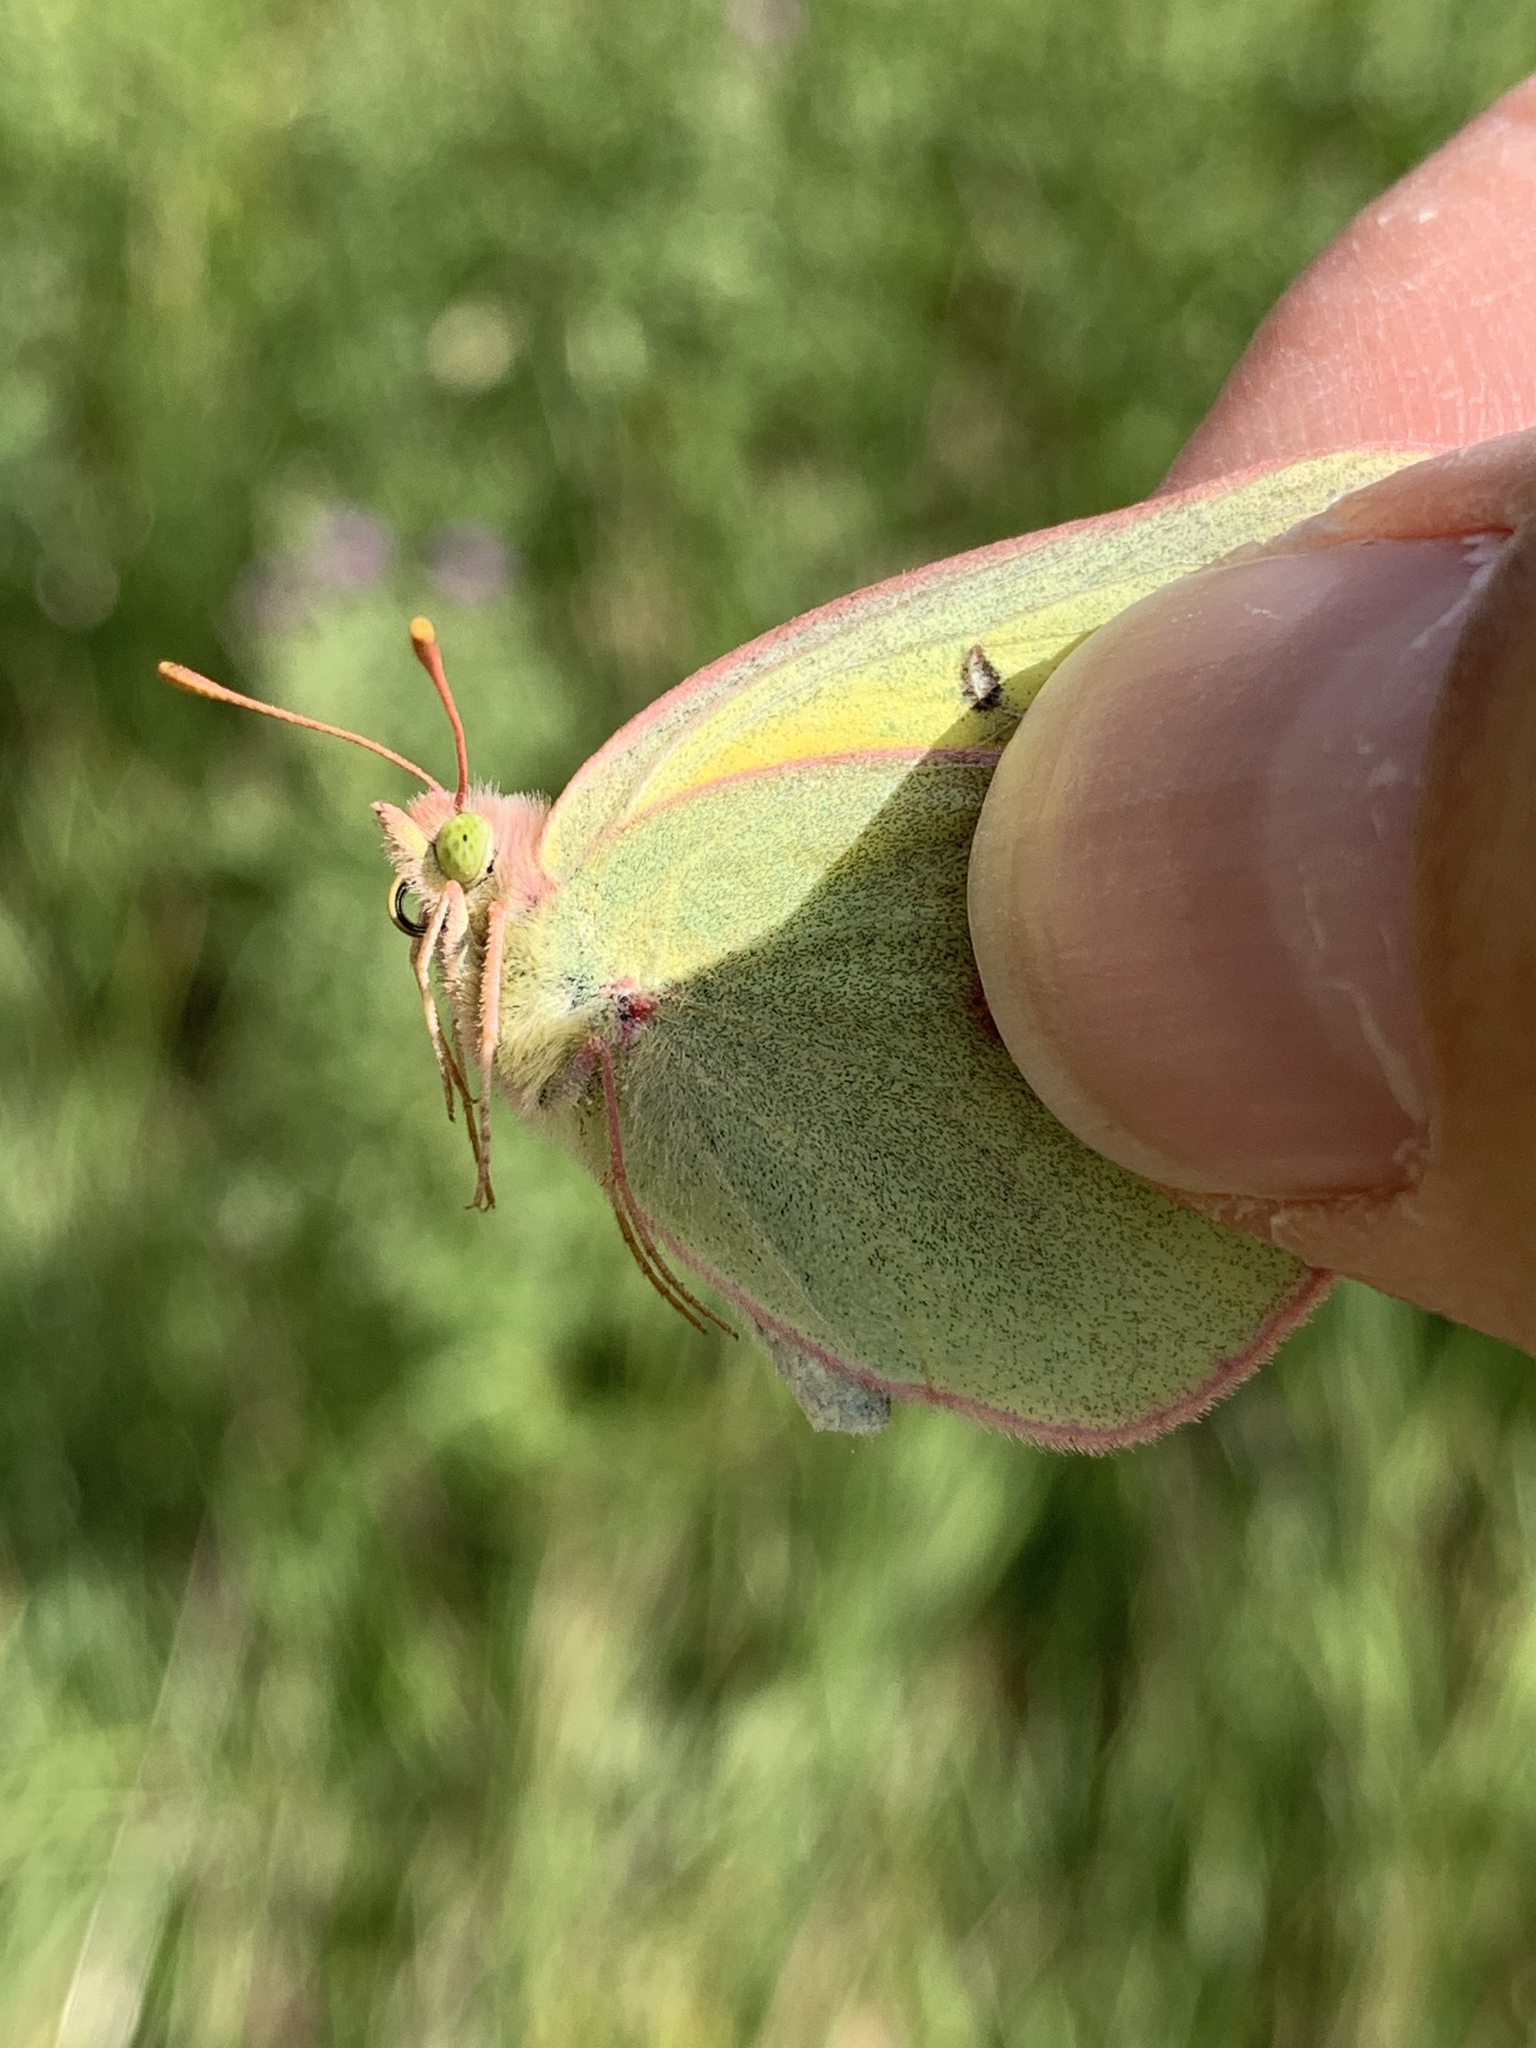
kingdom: Animalia
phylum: Arthropoda
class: Insecta
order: Lepidoptera
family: Pieridae
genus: Colias
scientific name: Colias christina
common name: Christina sulphur
